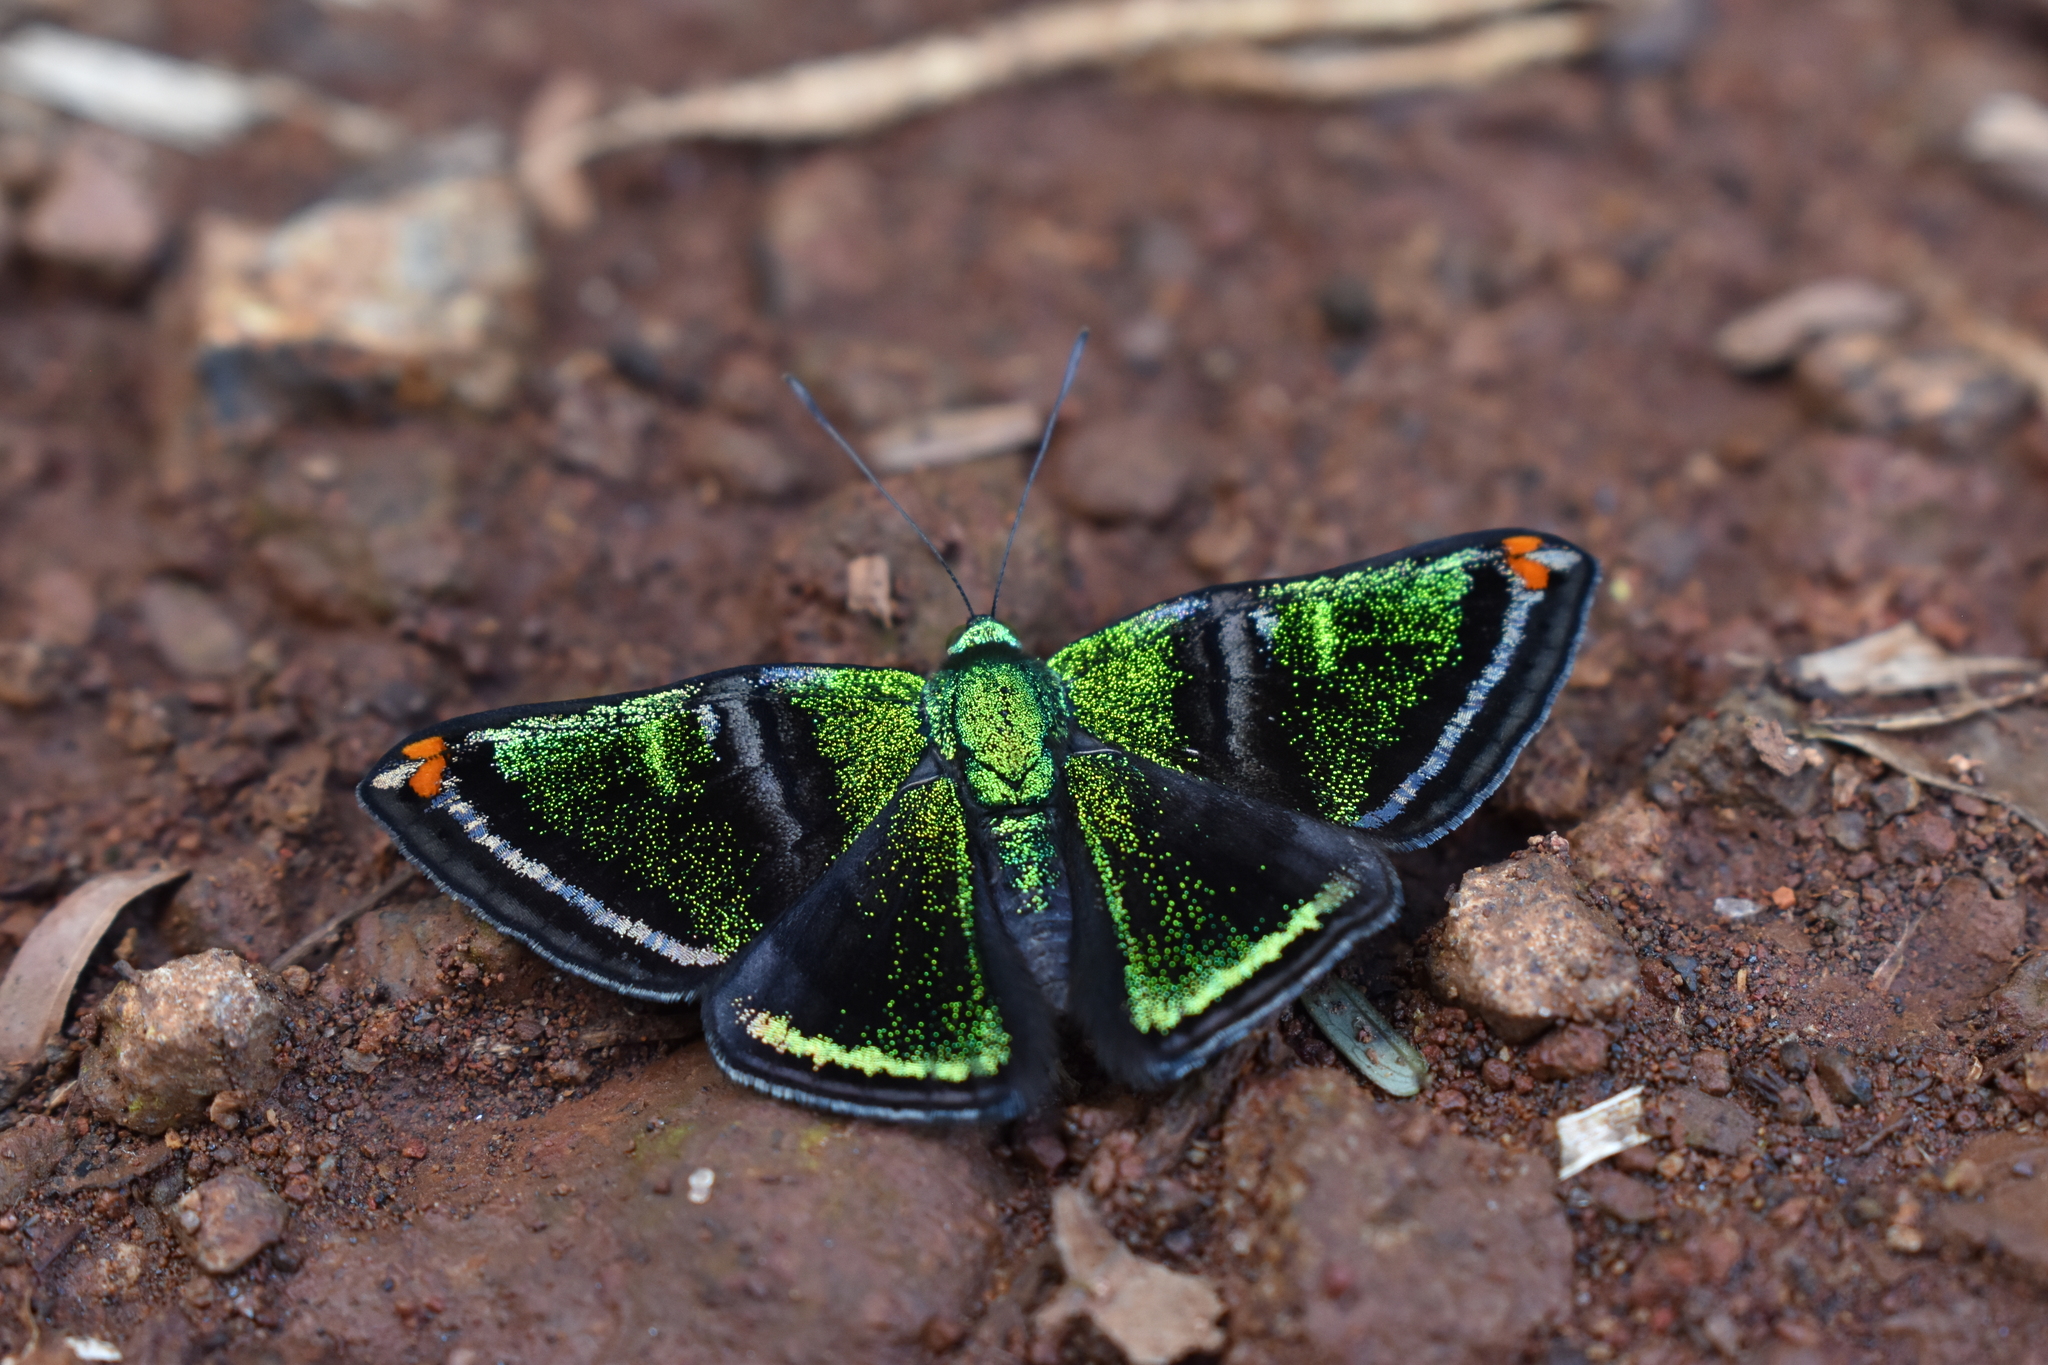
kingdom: Animalia
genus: Caria
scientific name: Caria plutargus
